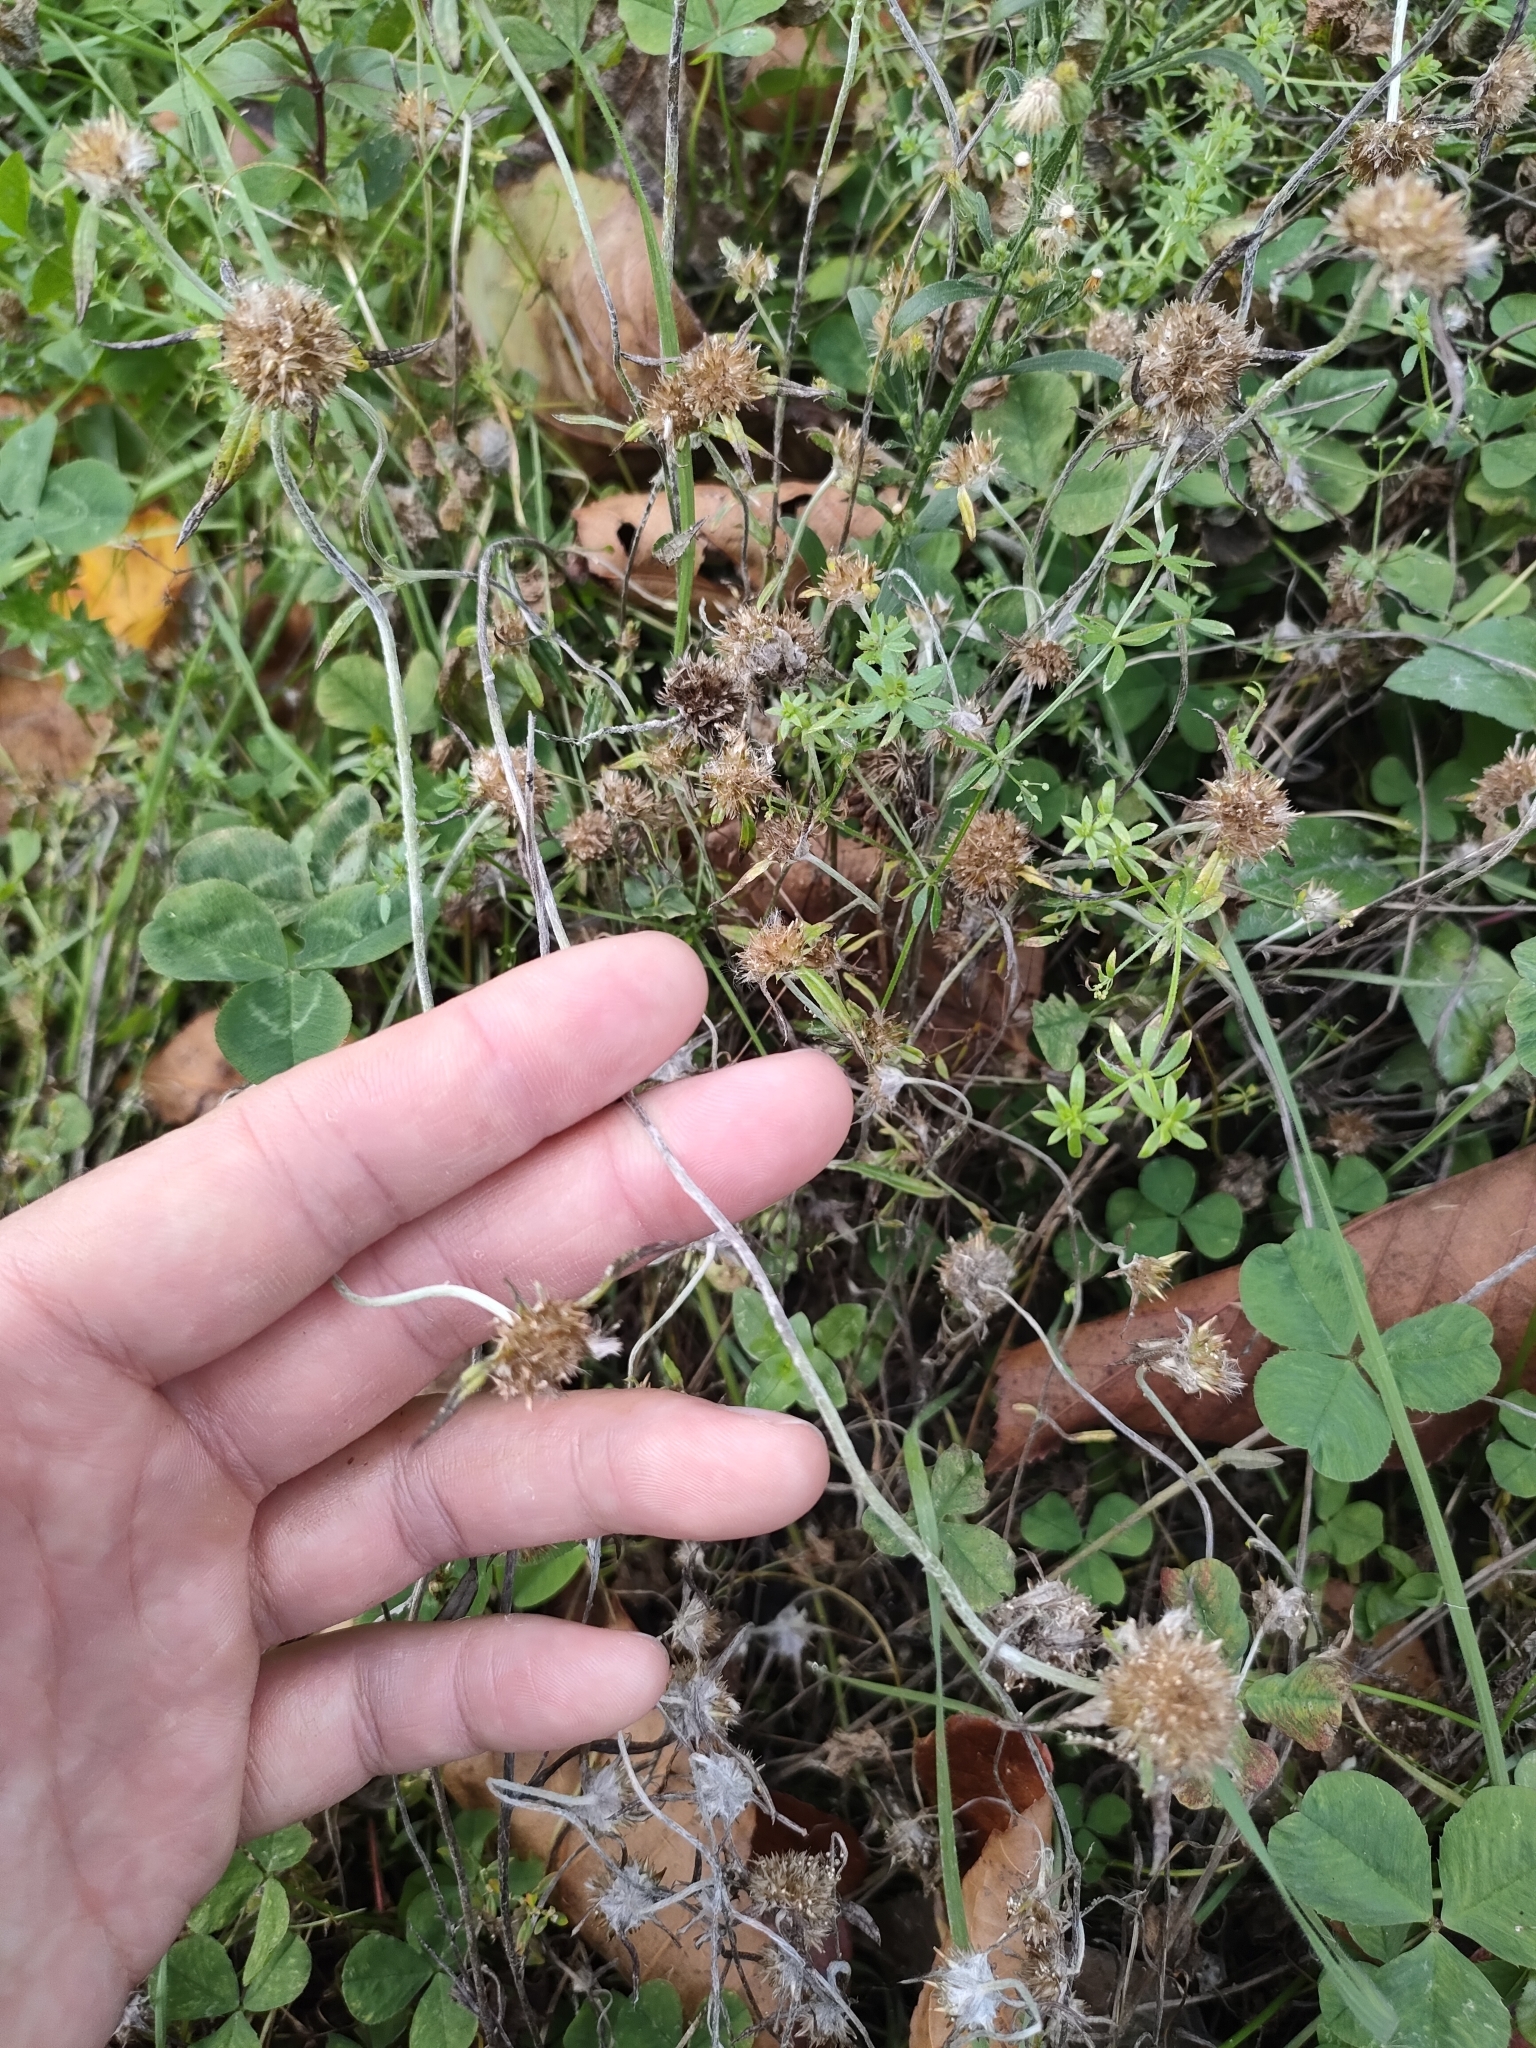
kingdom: Plantae
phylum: Tracheophyta
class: Magnoliopsida
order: Asterales
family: Asteraceae
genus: Euchiton
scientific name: Euchiton sphaericus
